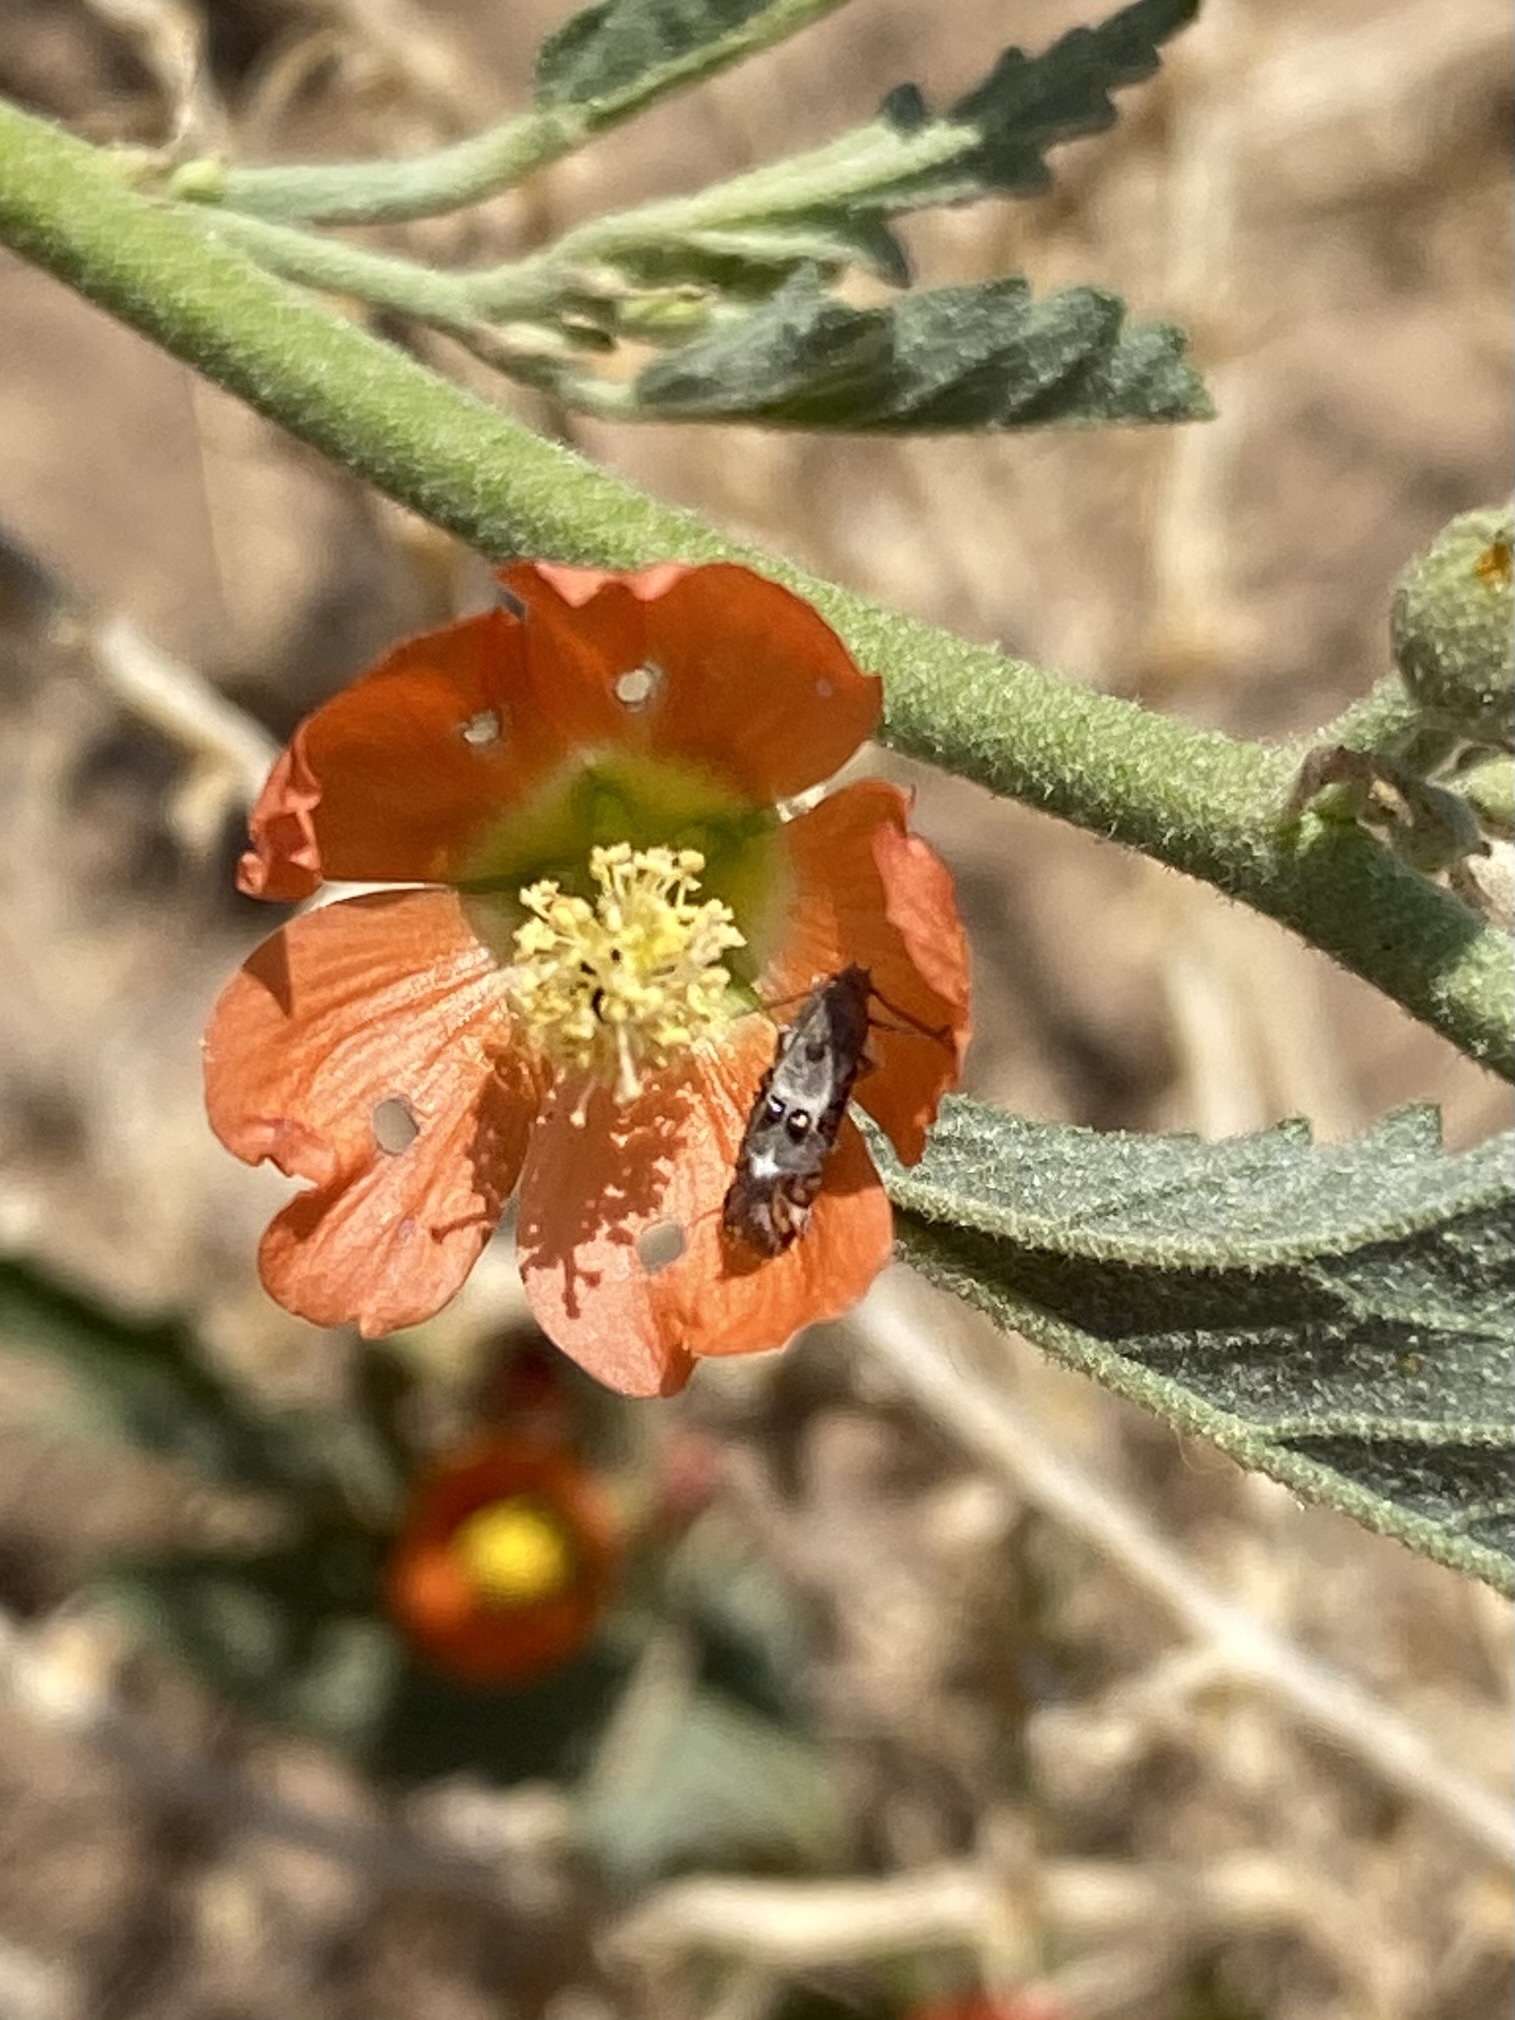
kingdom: Animalia
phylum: Arthropoda
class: Insecta
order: Lepidoptera
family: Heliodinidae
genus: Lithariapteryx
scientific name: Lithariapteryx abroniaeella
